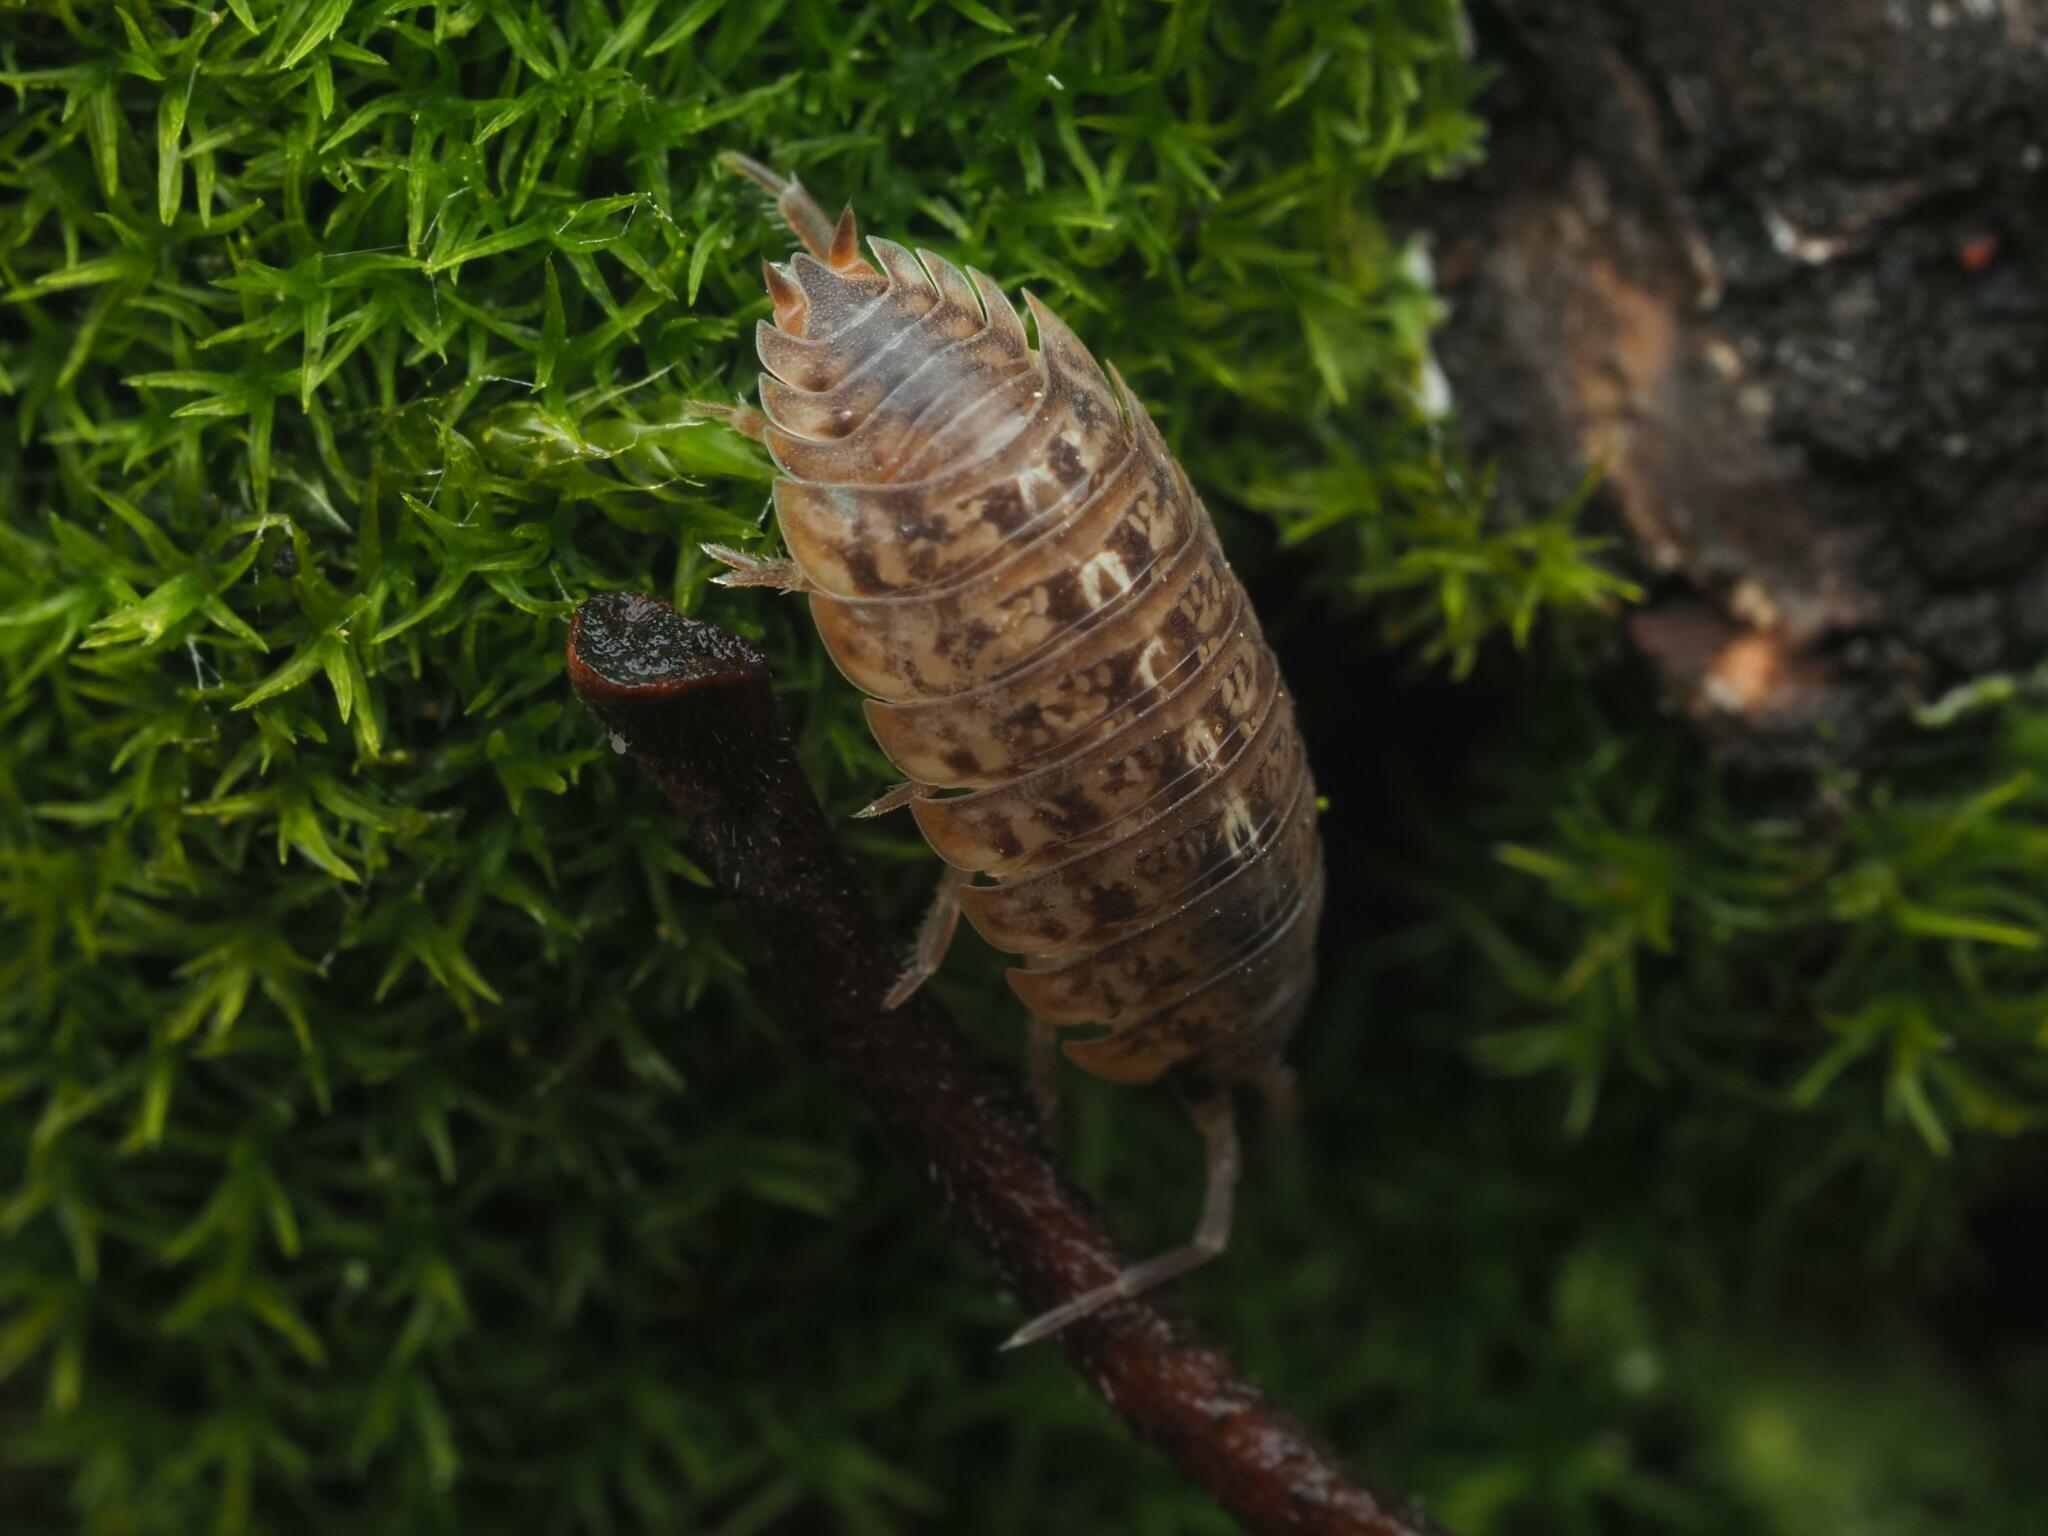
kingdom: Animalia
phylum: Arthropoda
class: Malacostraca
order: Isopoda
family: Trachelipodidae
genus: Trachelipus
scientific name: Trachelipus razzautii
